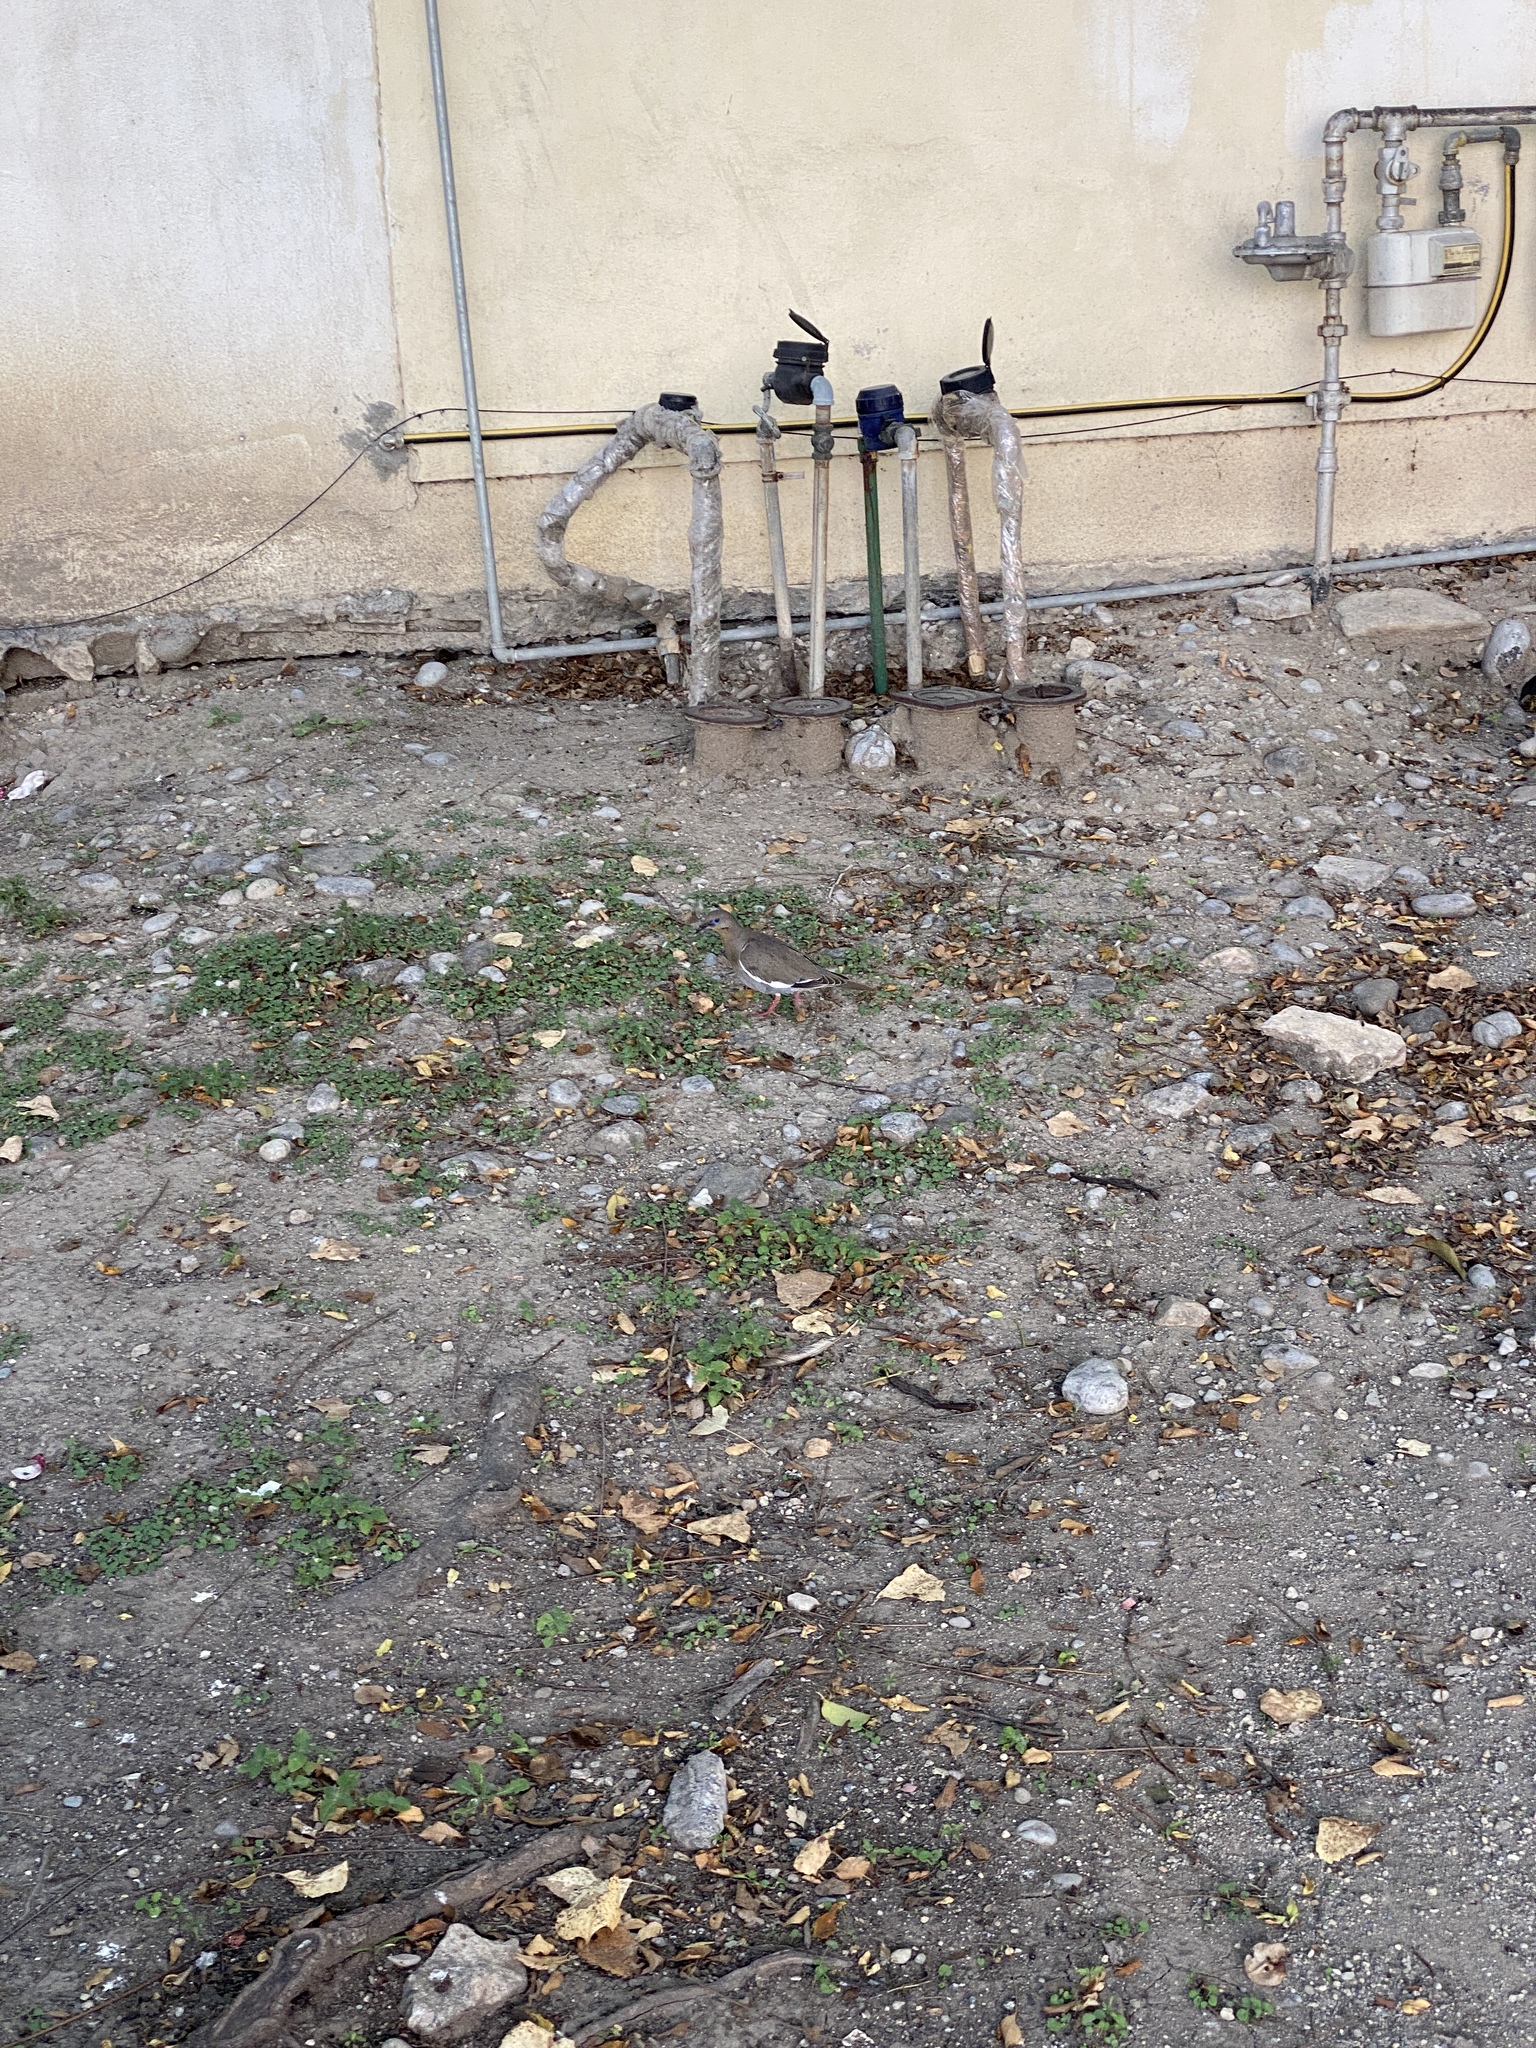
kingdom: Animalia
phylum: Chordata
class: Aves
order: Columbiformes
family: Columbidae
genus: Zenaida
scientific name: Zenaida asiatica
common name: White-winged dove
